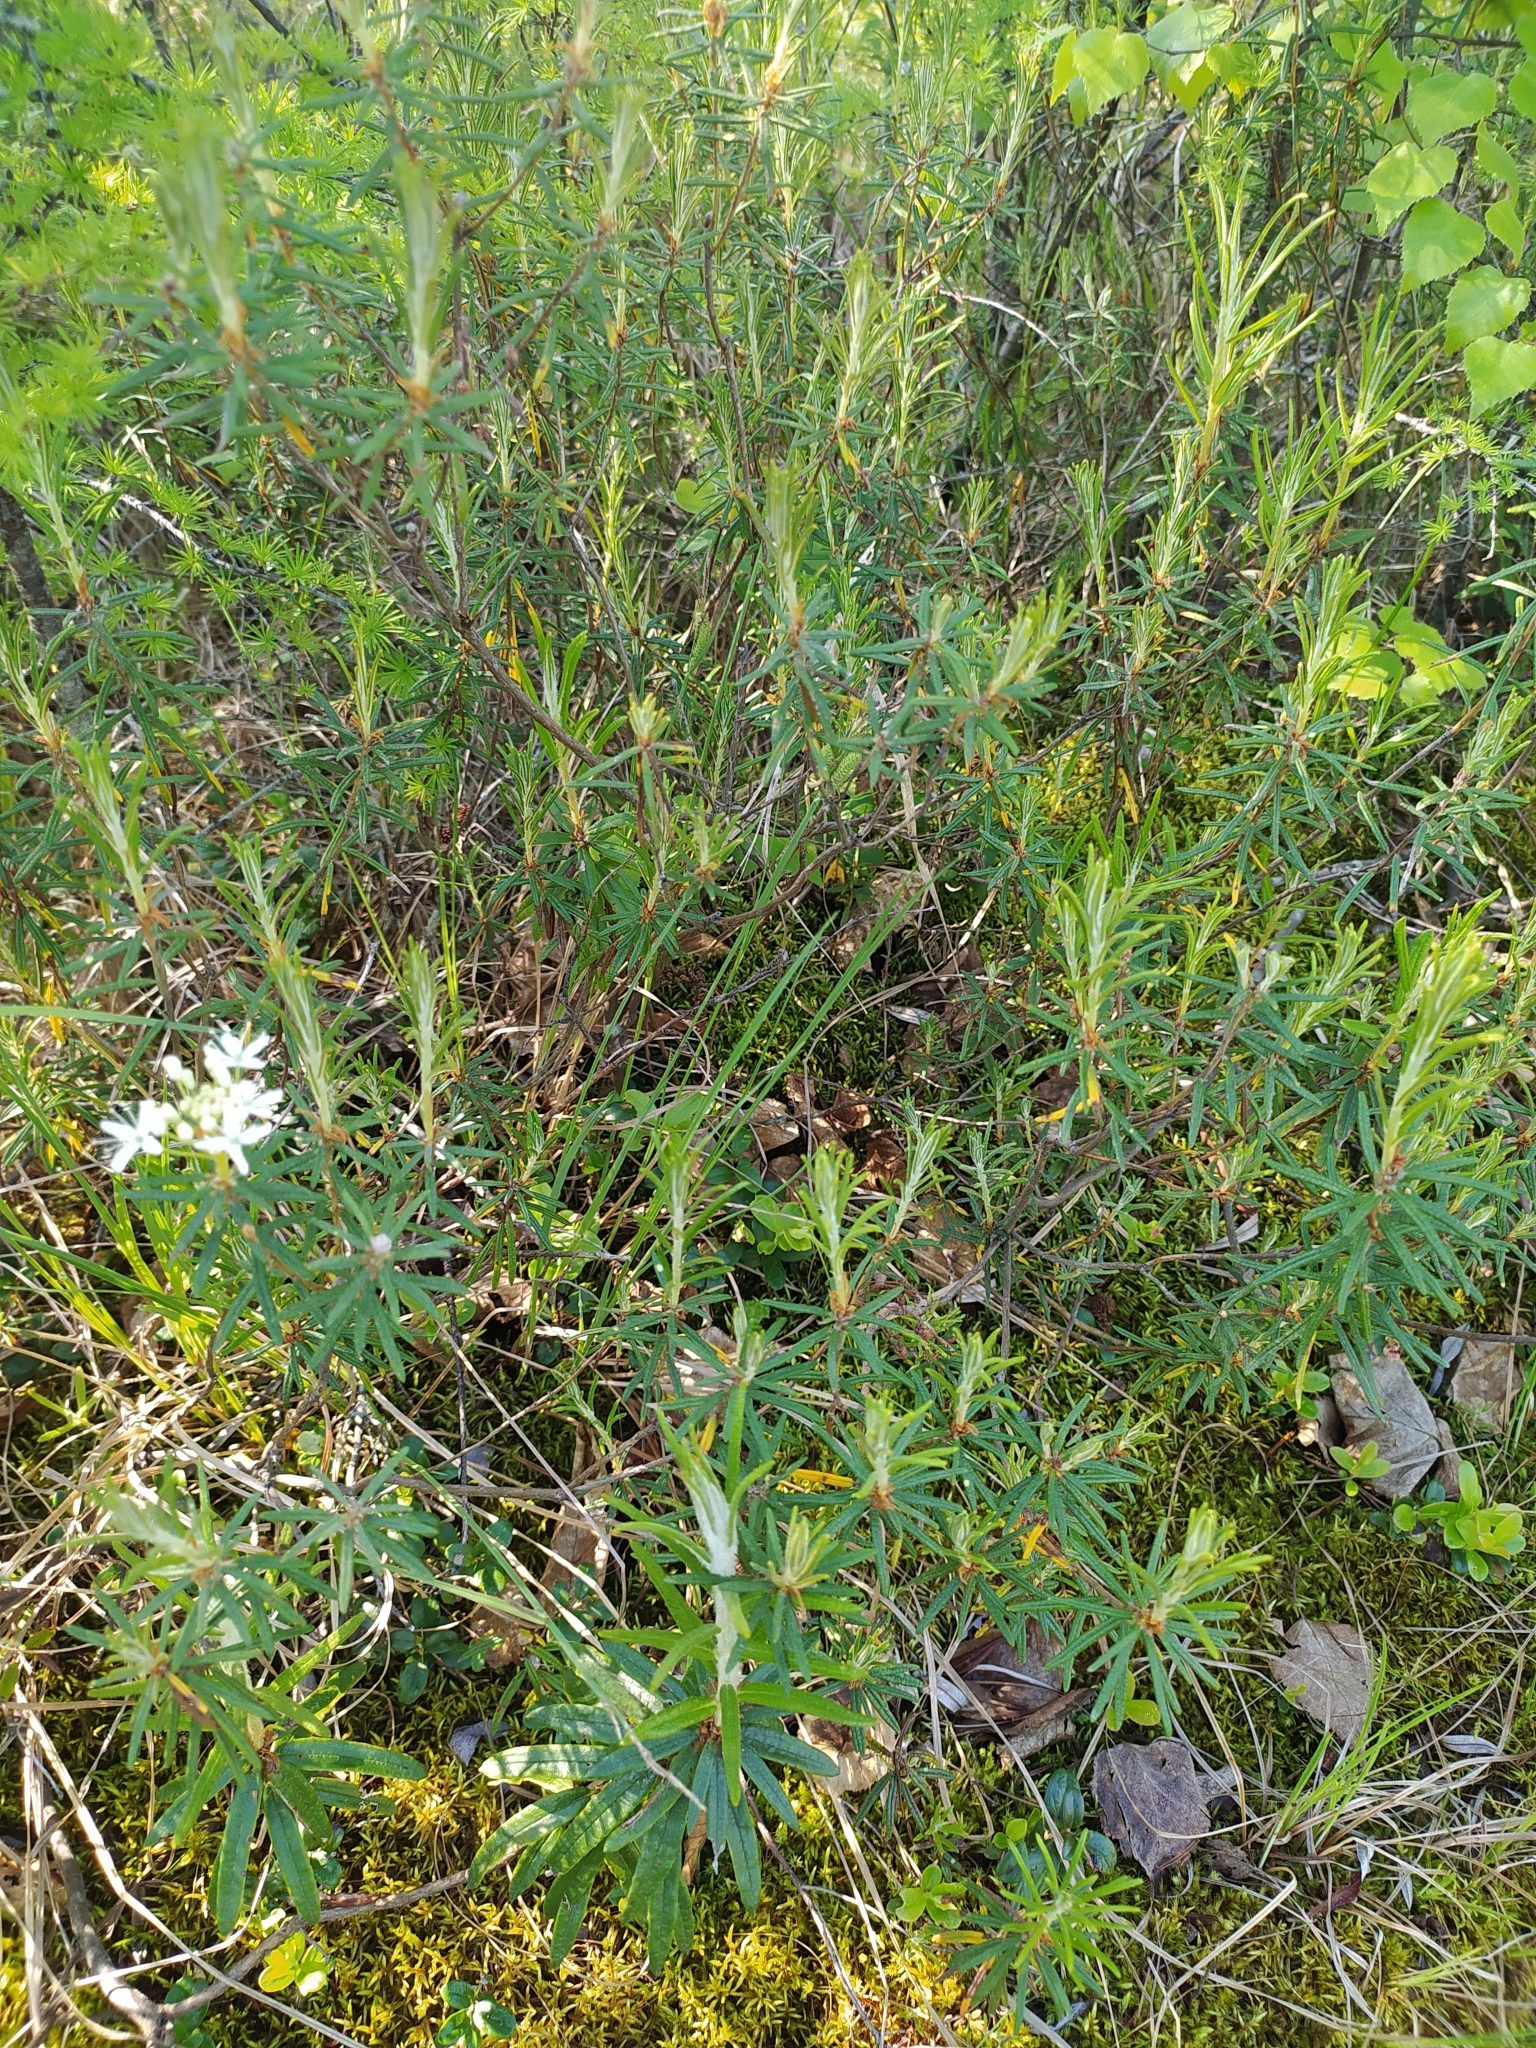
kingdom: Plantae
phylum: Tracheophyta
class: Magnoliopsida
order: Ericales
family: Ericaceae
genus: Rhododendron
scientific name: Rhododendron tomentosum
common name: Marsh labrador tea
